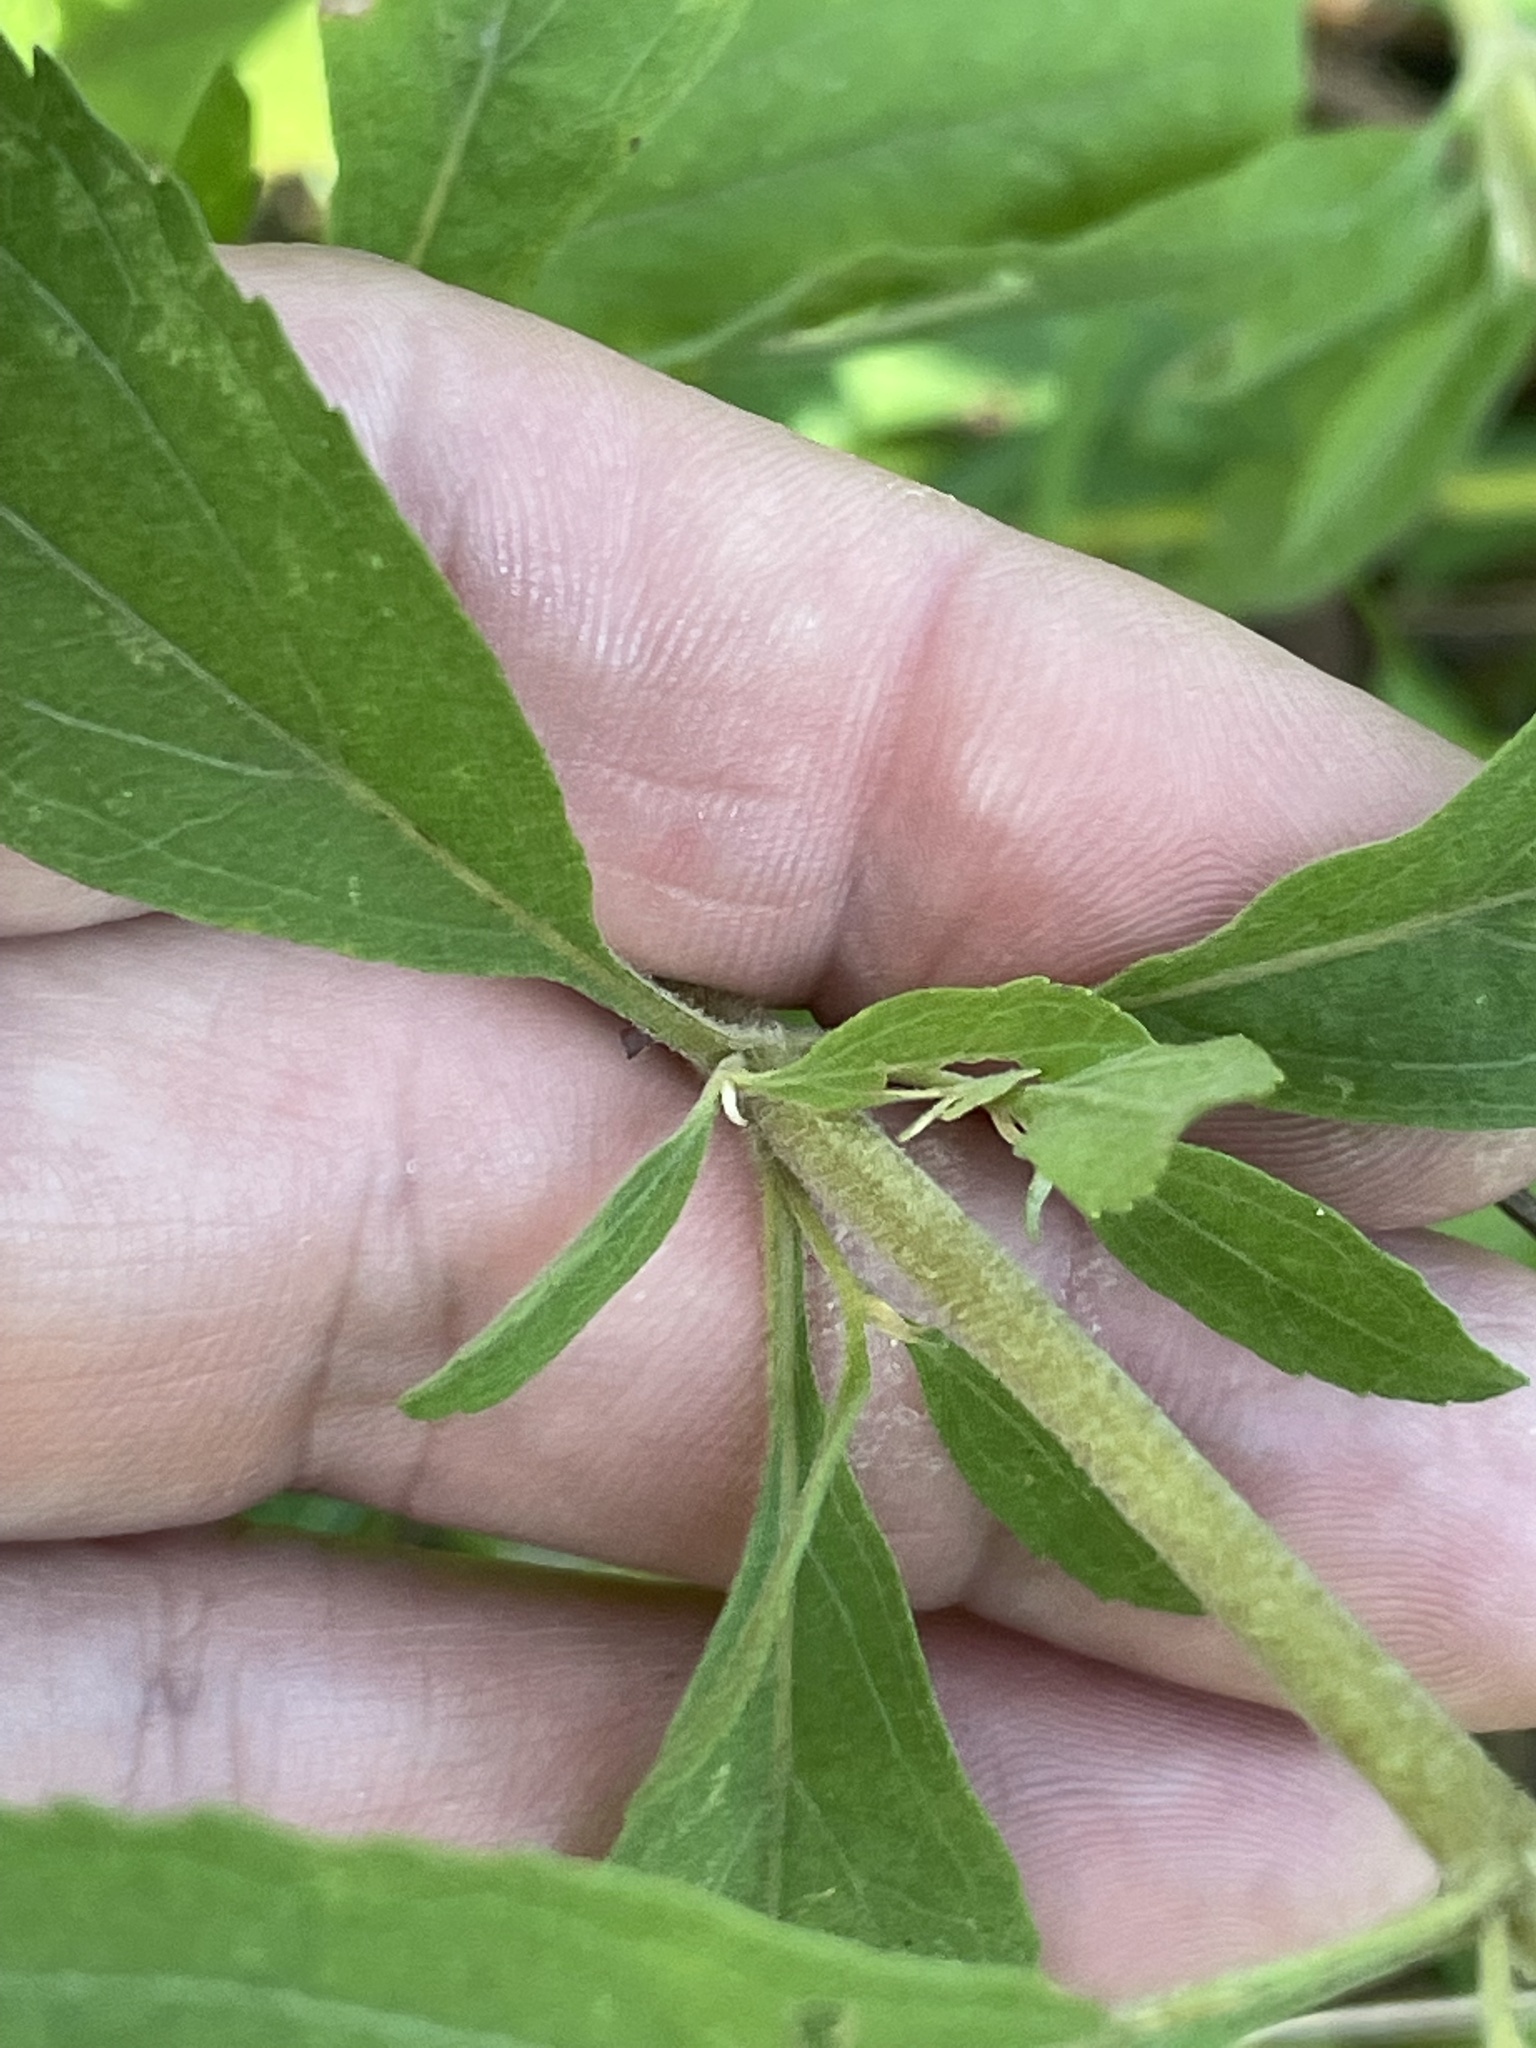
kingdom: Plantae
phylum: Tracheophyta
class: Magnoliopsida
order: Asterales
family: Asteraceae
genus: Eupatorium
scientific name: Eupatorium semiserratum
